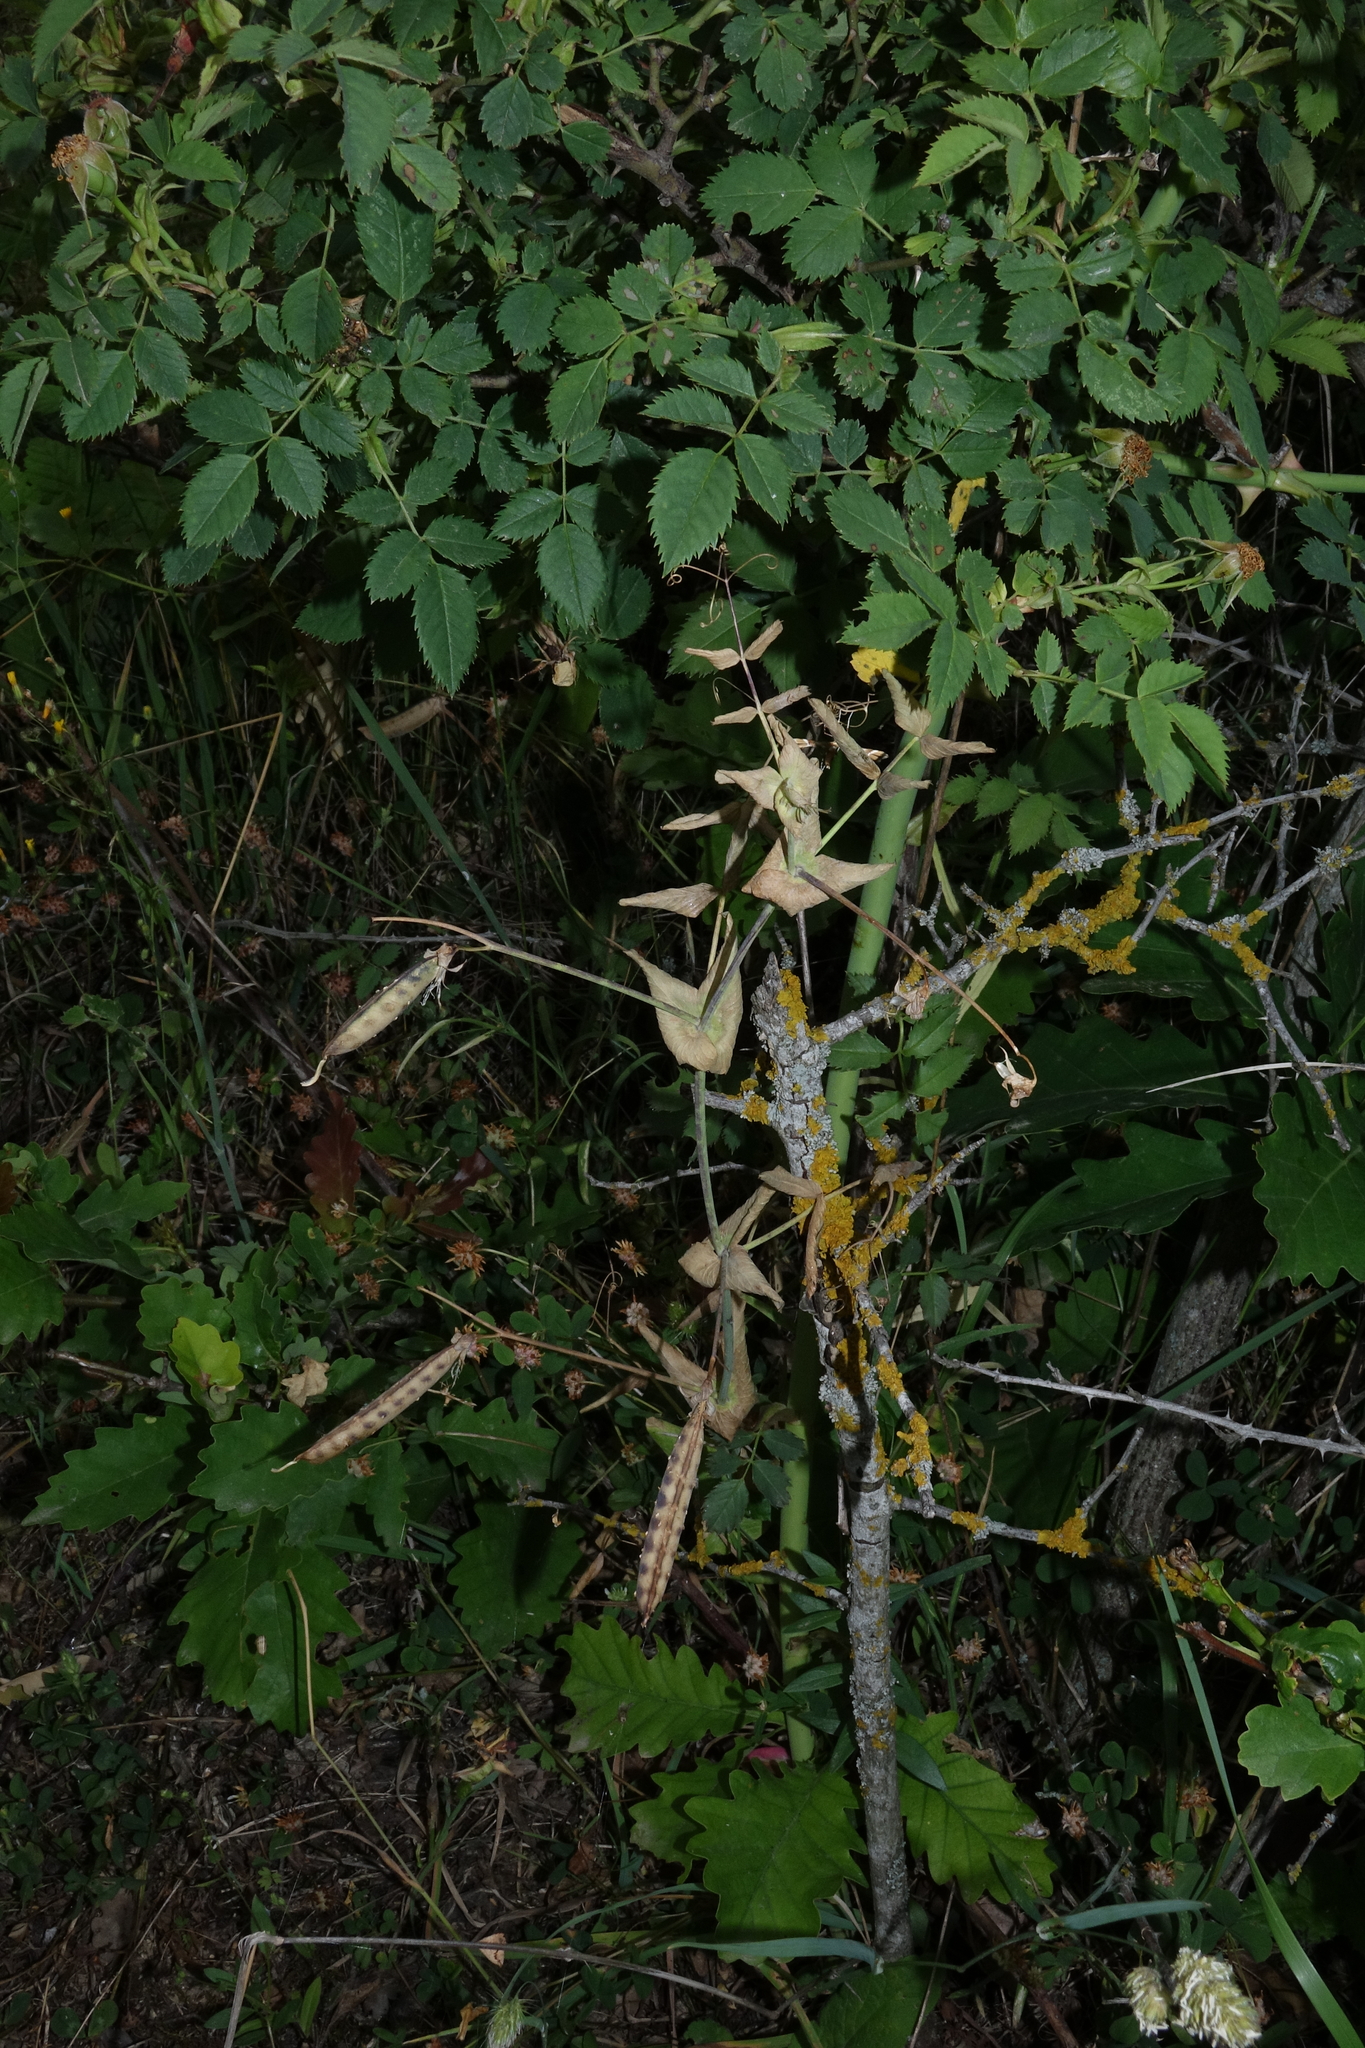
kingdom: Plantae
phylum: Tracheophyta
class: Magnoliopsida
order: Fabales
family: Fabaceae
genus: Lathyrus
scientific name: Lathyrus oleraceus
